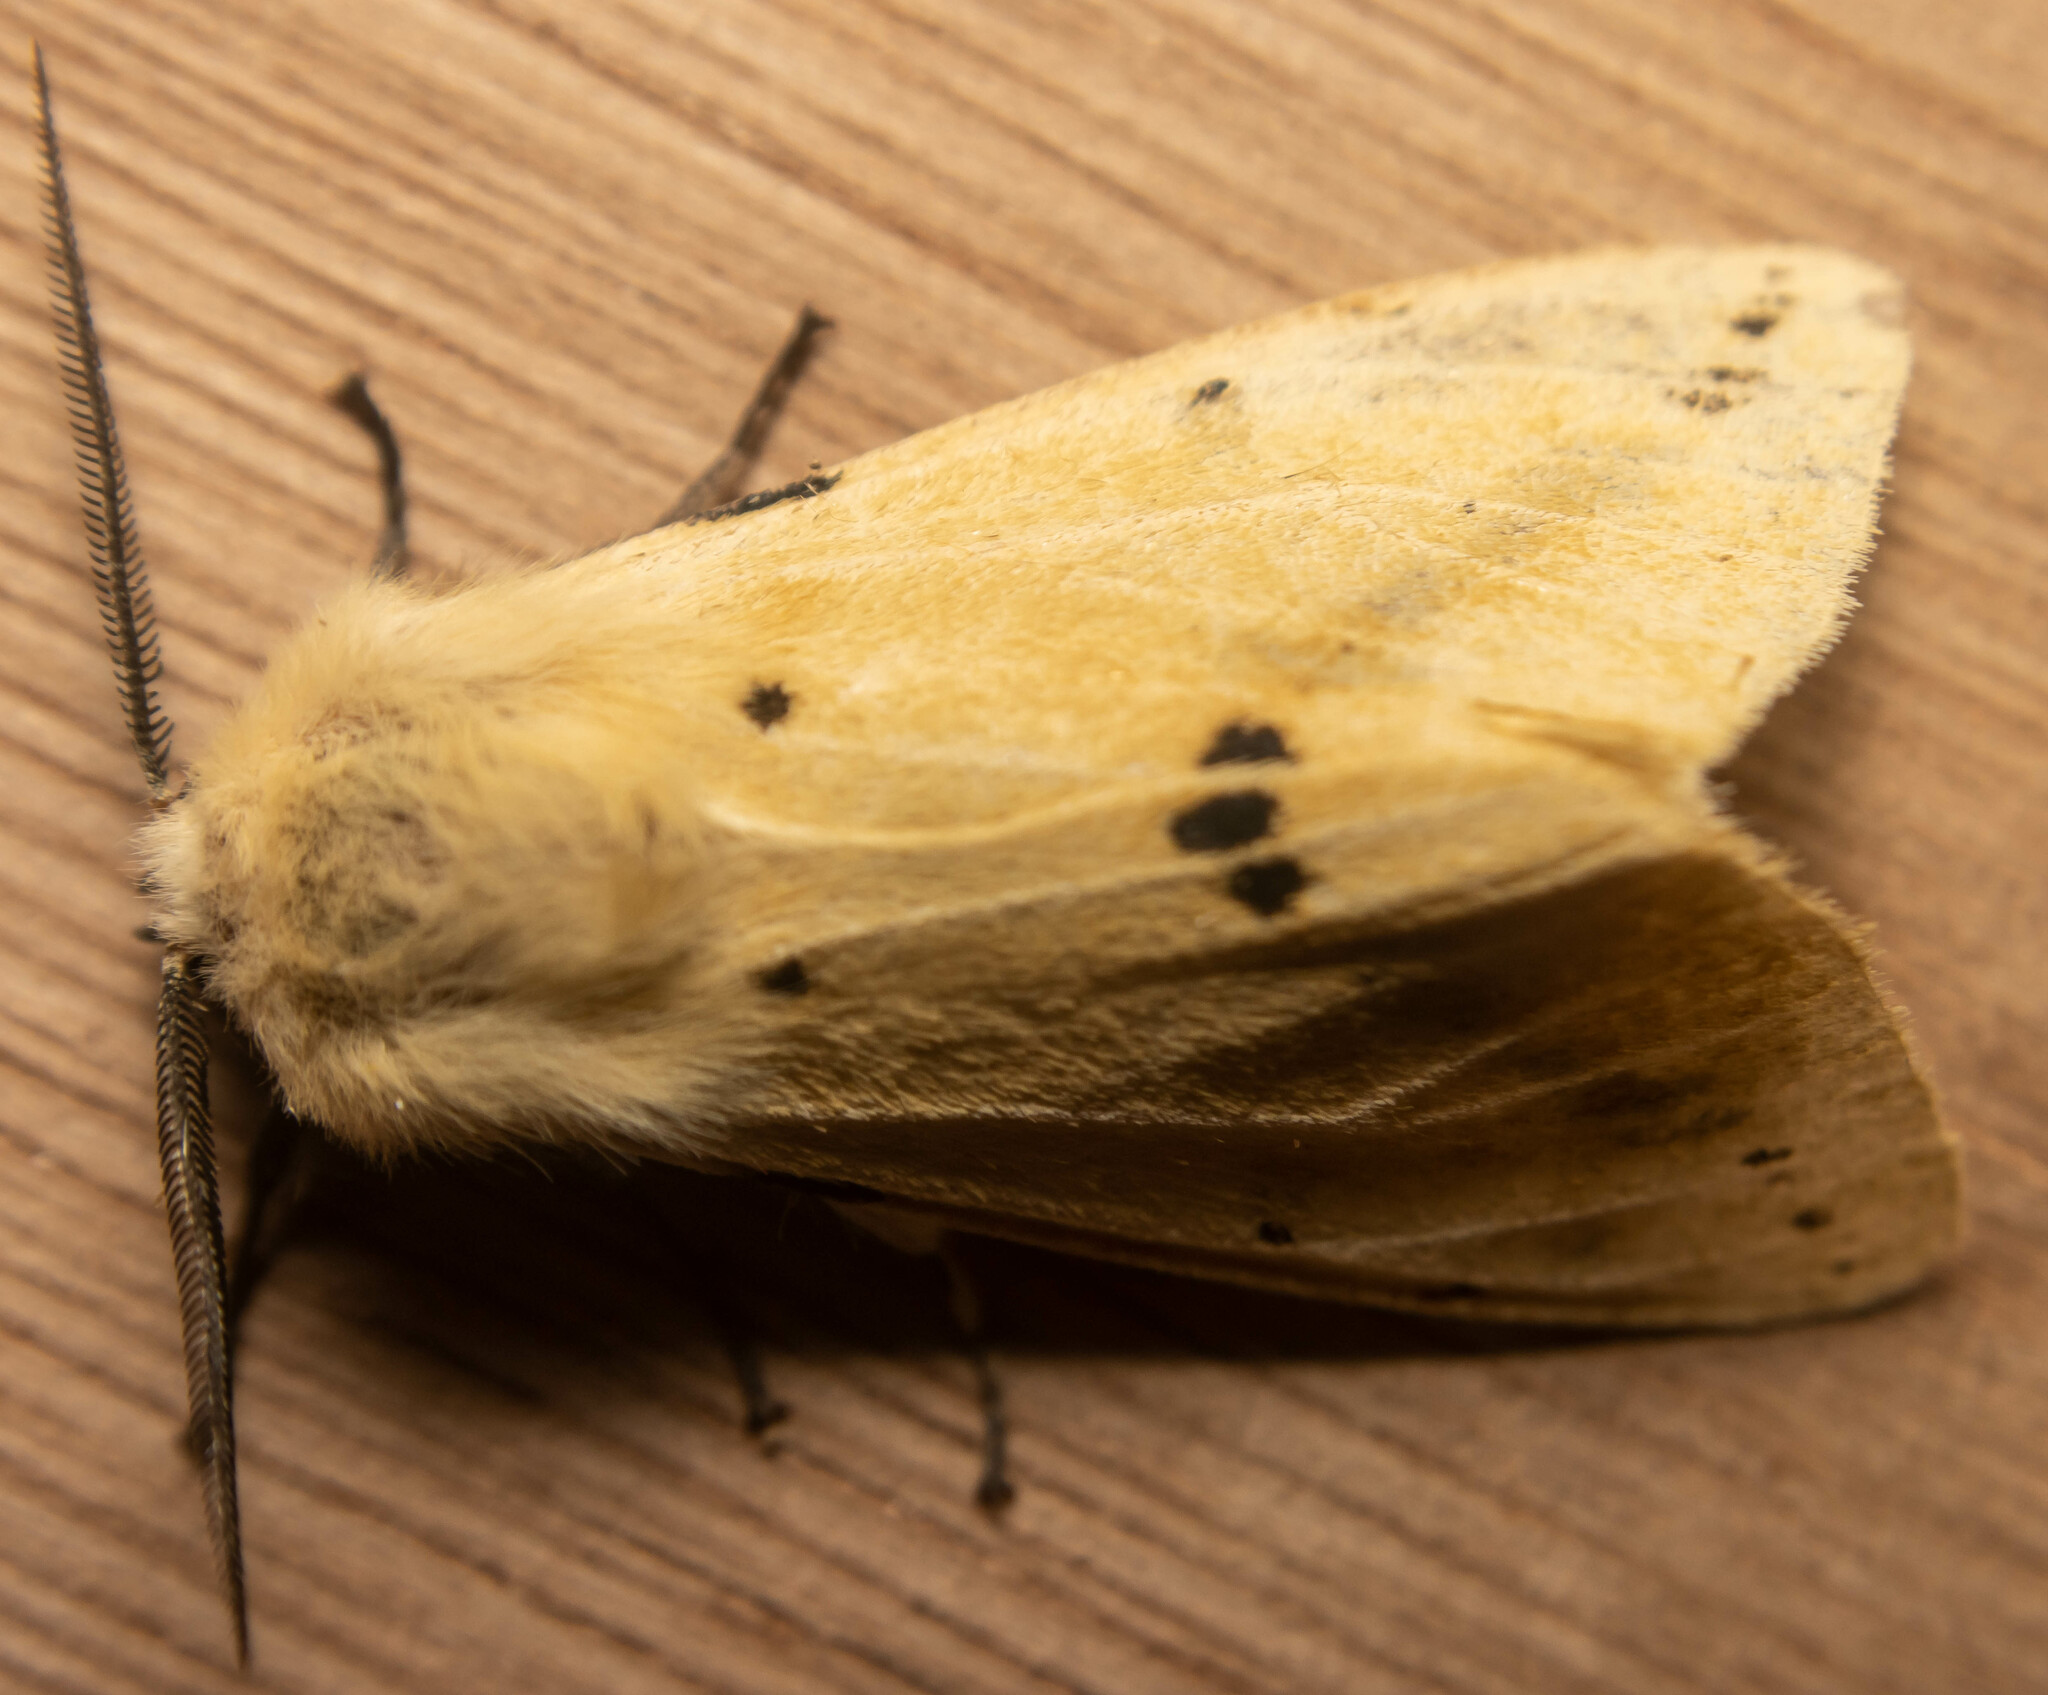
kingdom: Animalia
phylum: Arthropoda
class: Insecta
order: Lepidoptera
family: Erebidae
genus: Spilarctia
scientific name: Spilarctia lutea
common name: Buff ermine
